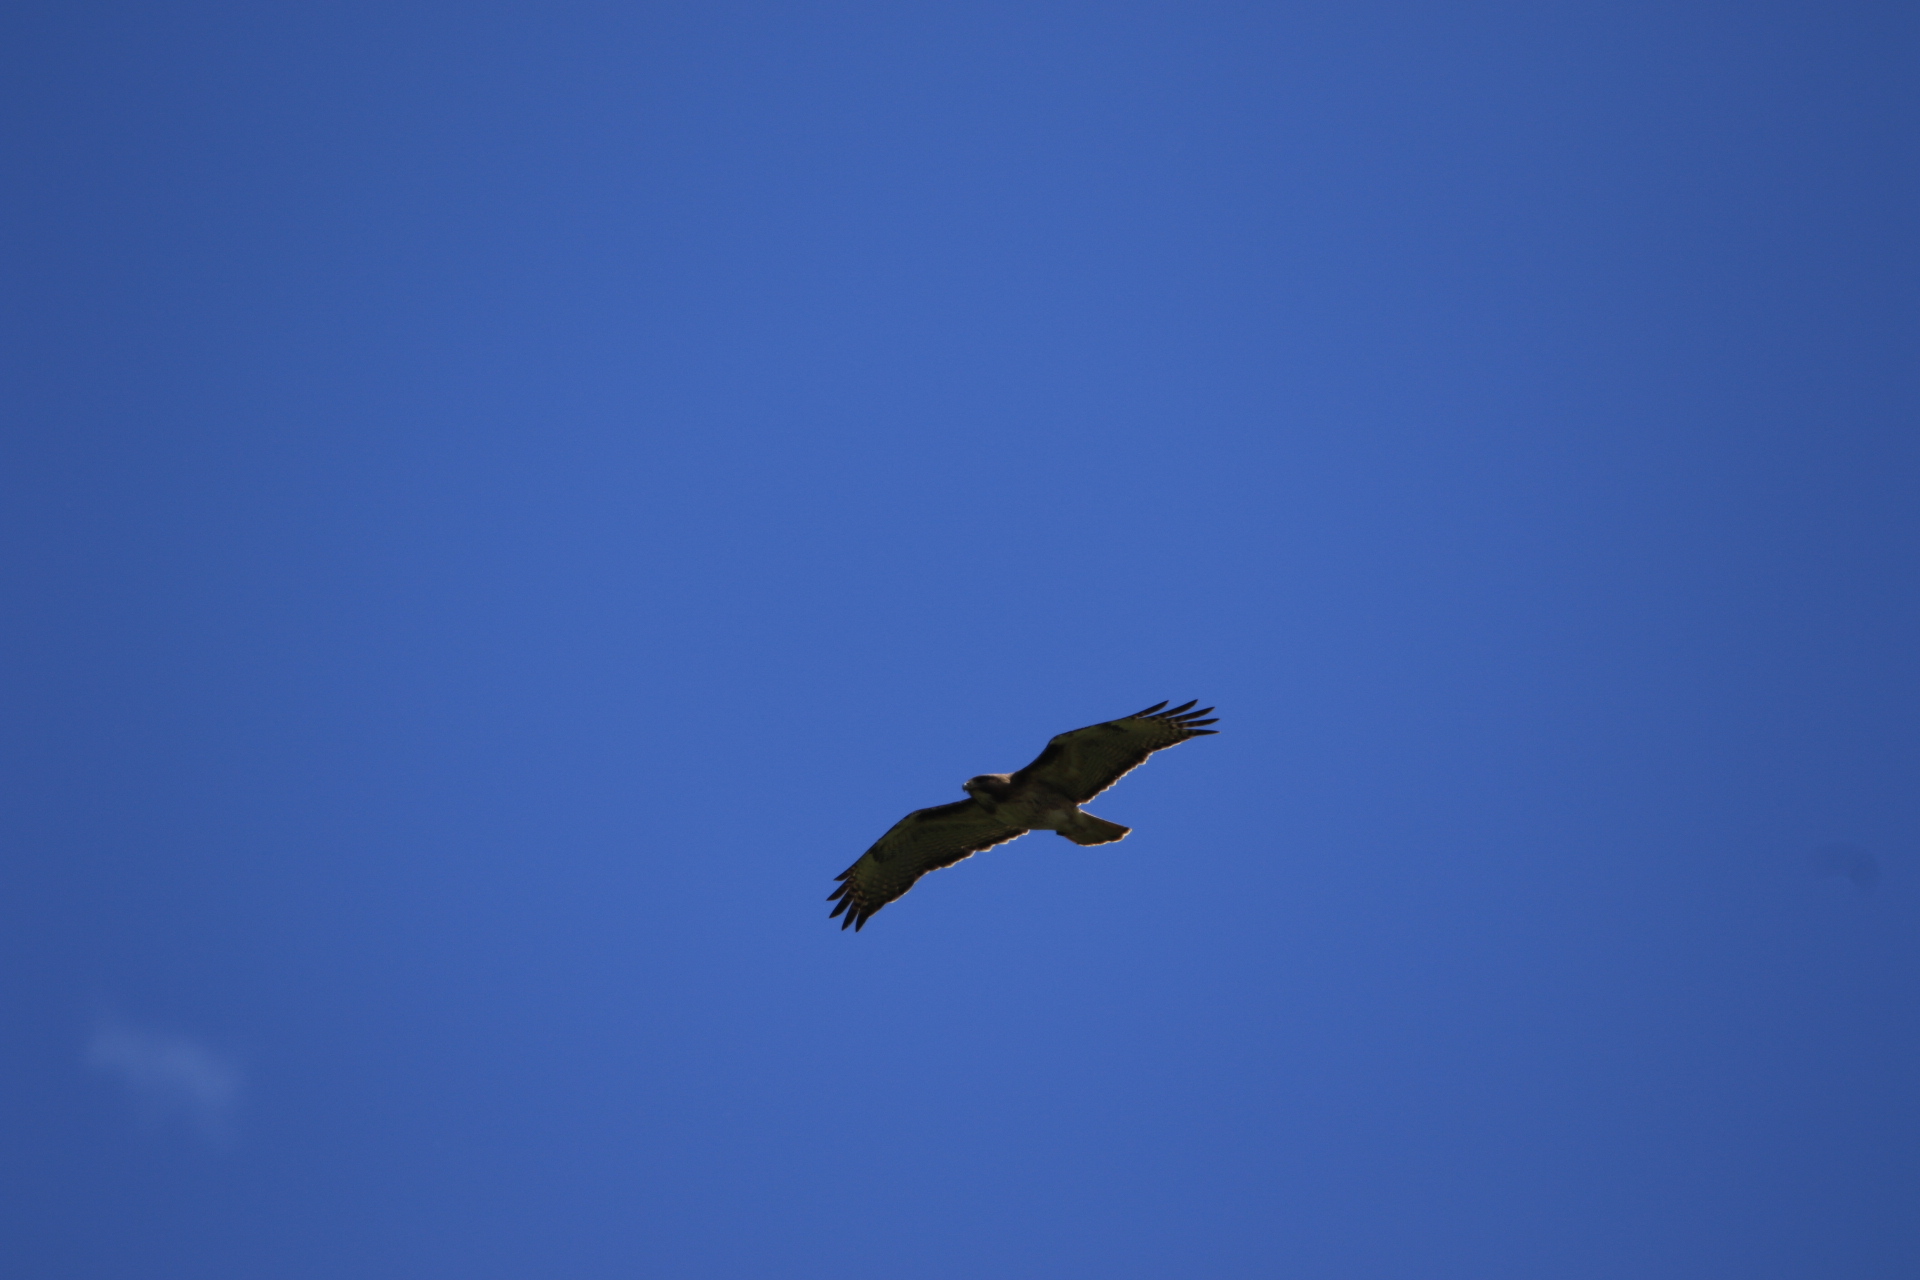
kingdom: Animalia
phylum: Chordata
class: Aves
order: Accipitriformes
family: Accipitridae
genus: Buteo
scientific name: Buteo jamaicensis
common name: Red-tailed hawk
